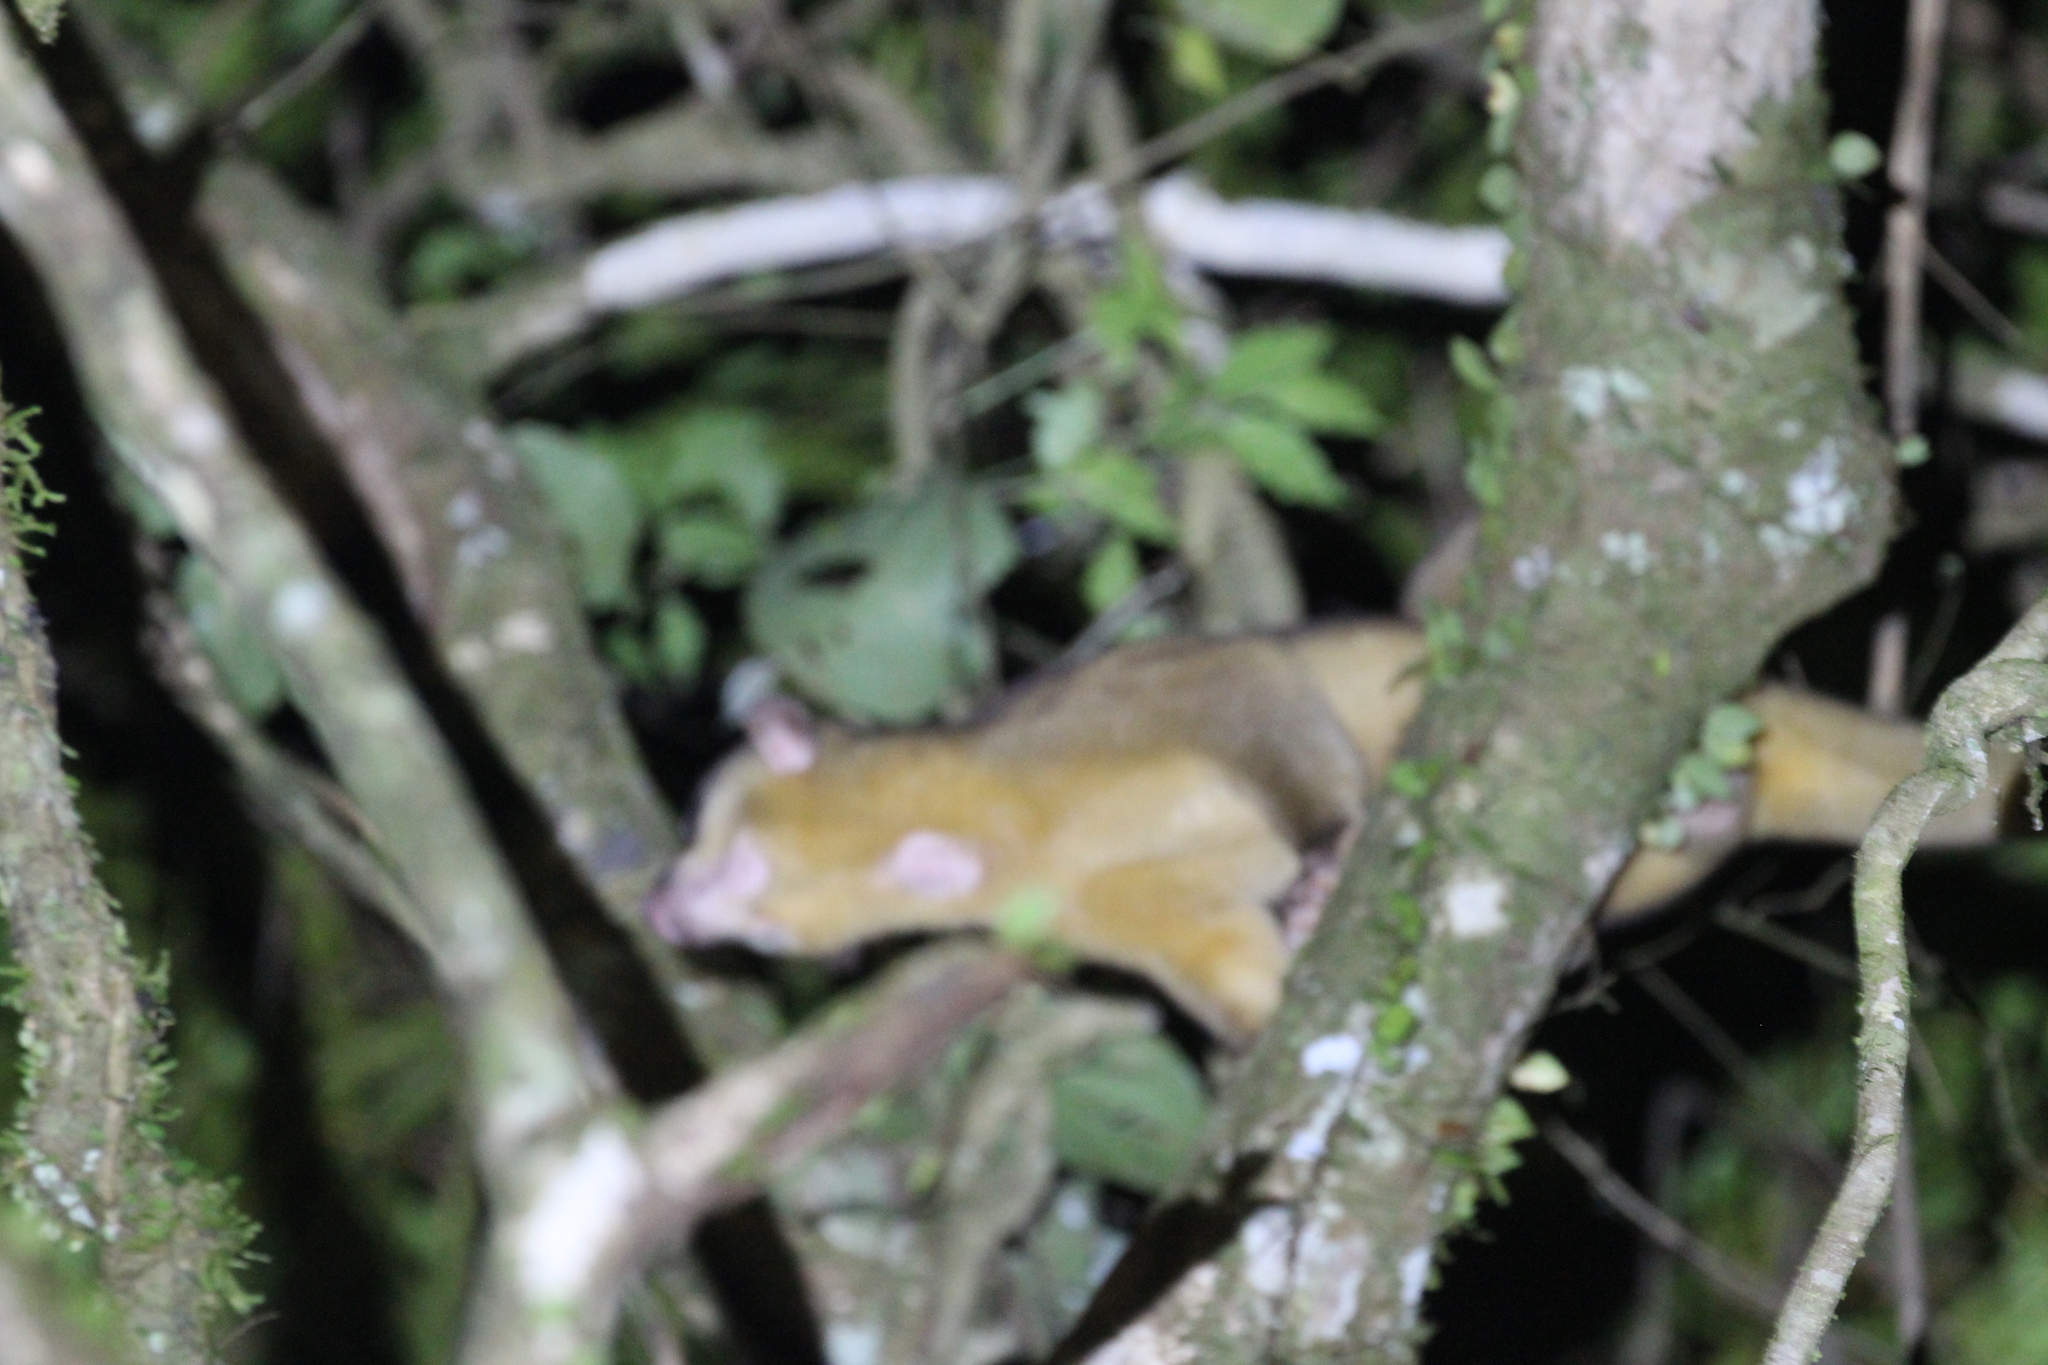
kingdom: Animalia
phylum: Chordata
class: Mammalia
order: Carnivora
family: Procyonidae
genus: Potos
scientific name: Potos flavus
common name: Kinkajou
